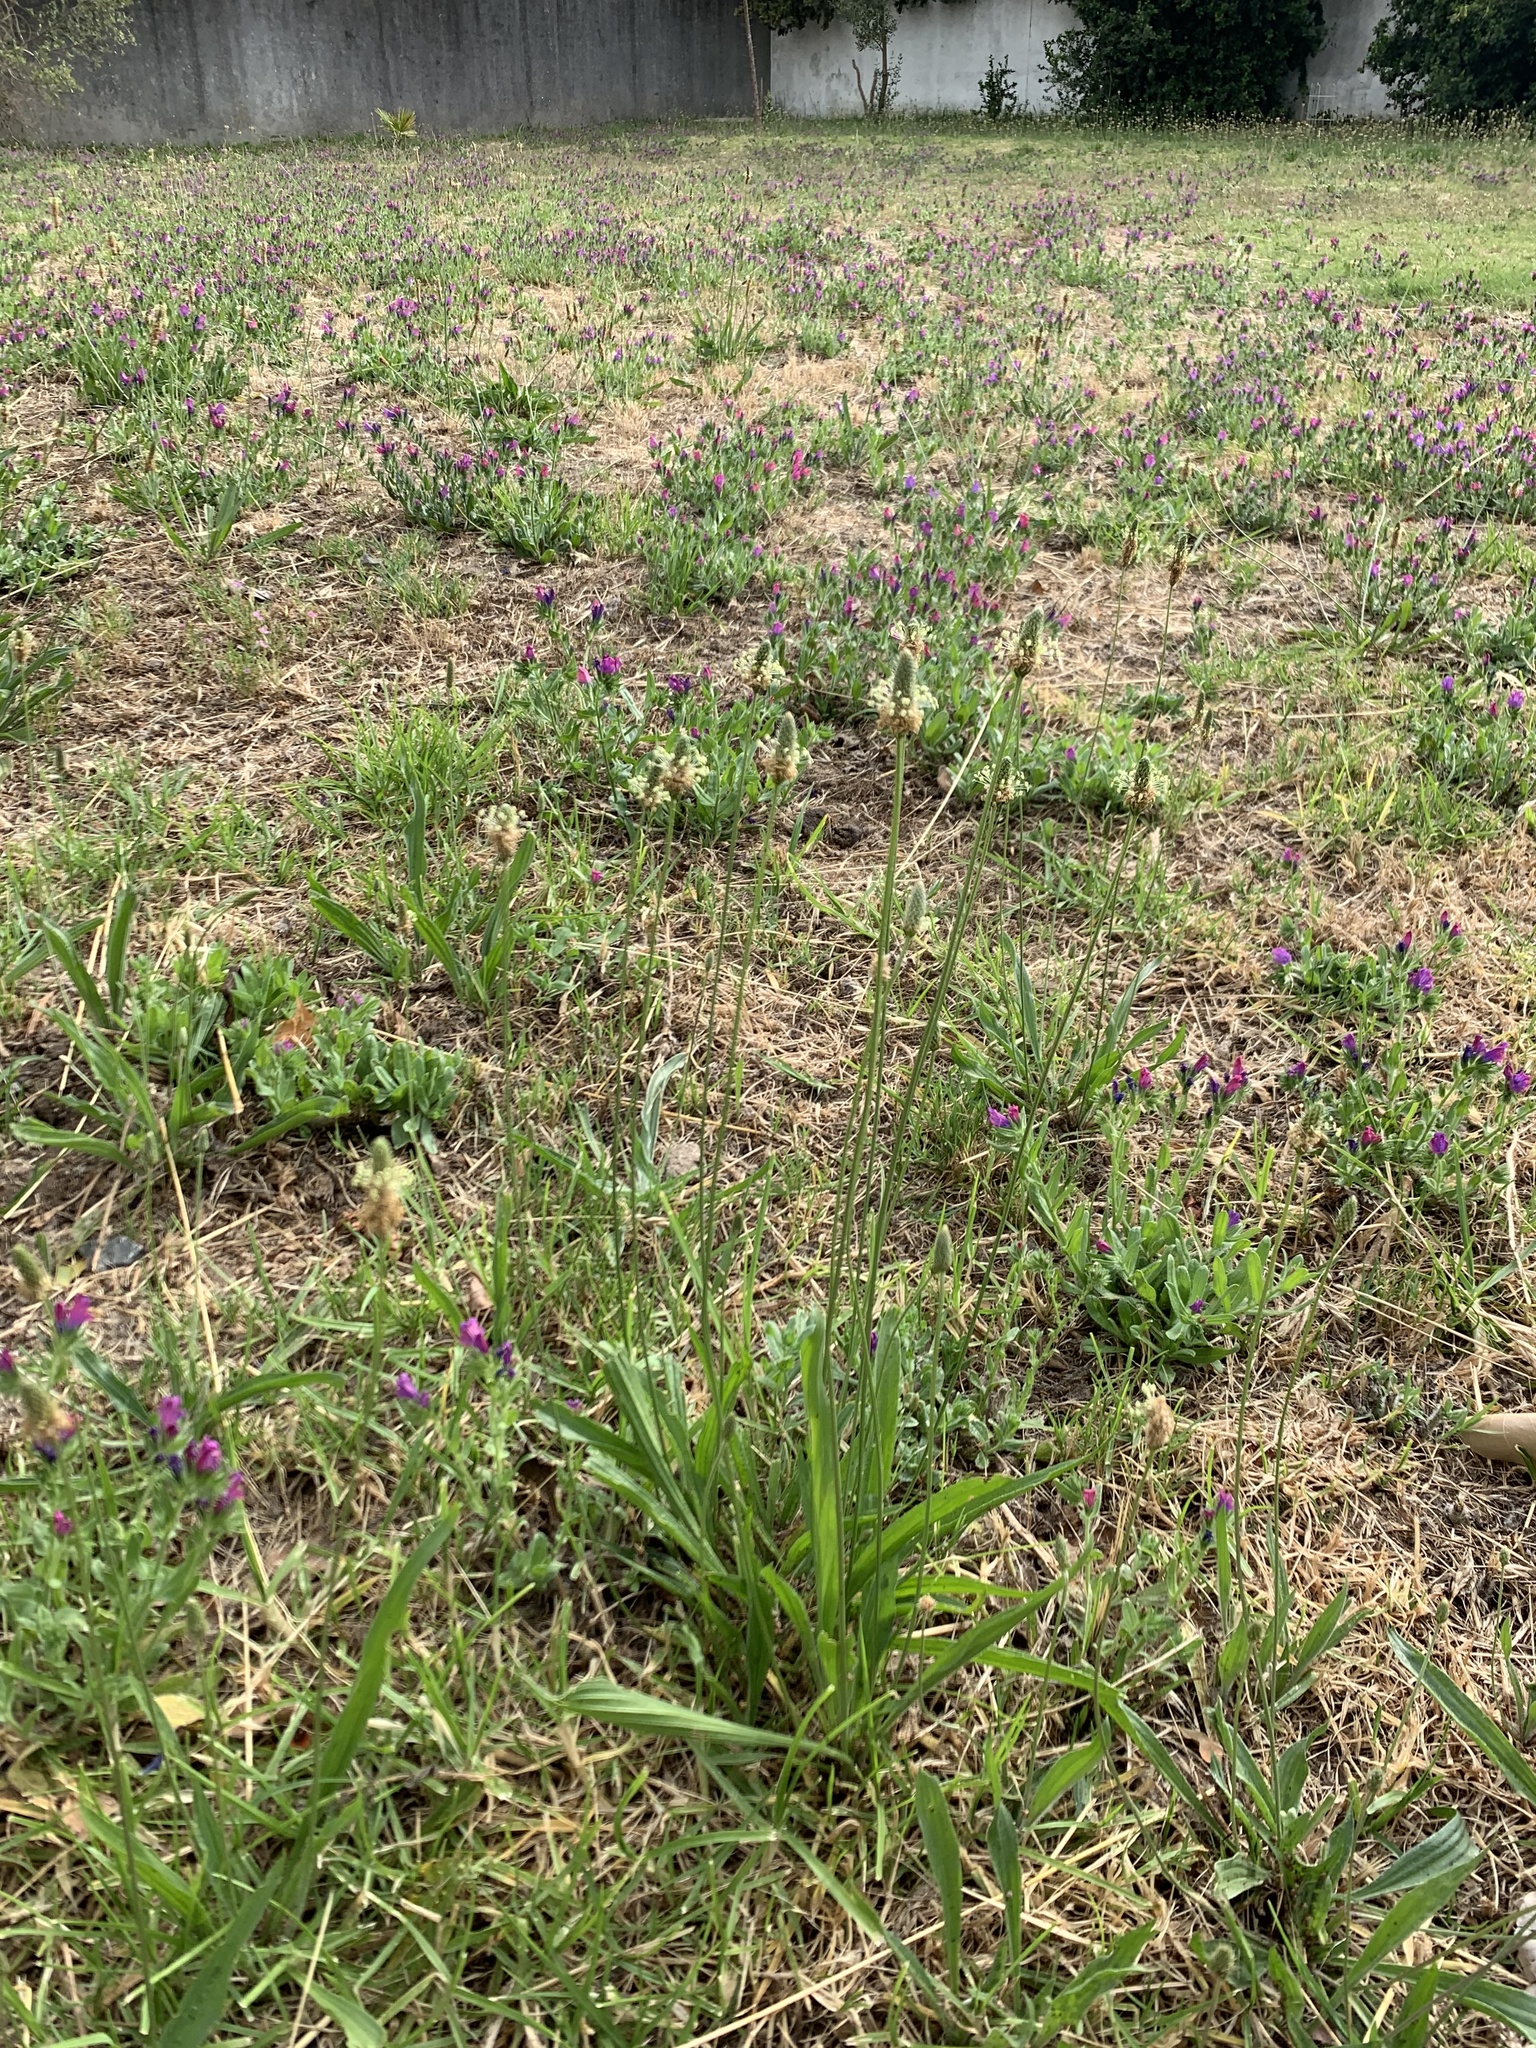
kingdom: Plantae
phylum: Tracheophyta
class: Magnoliopsida
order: Lamiales
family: Plantaginaceae
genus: Plantago
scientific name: Plantago lanceolata
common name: Ribwort plantain
